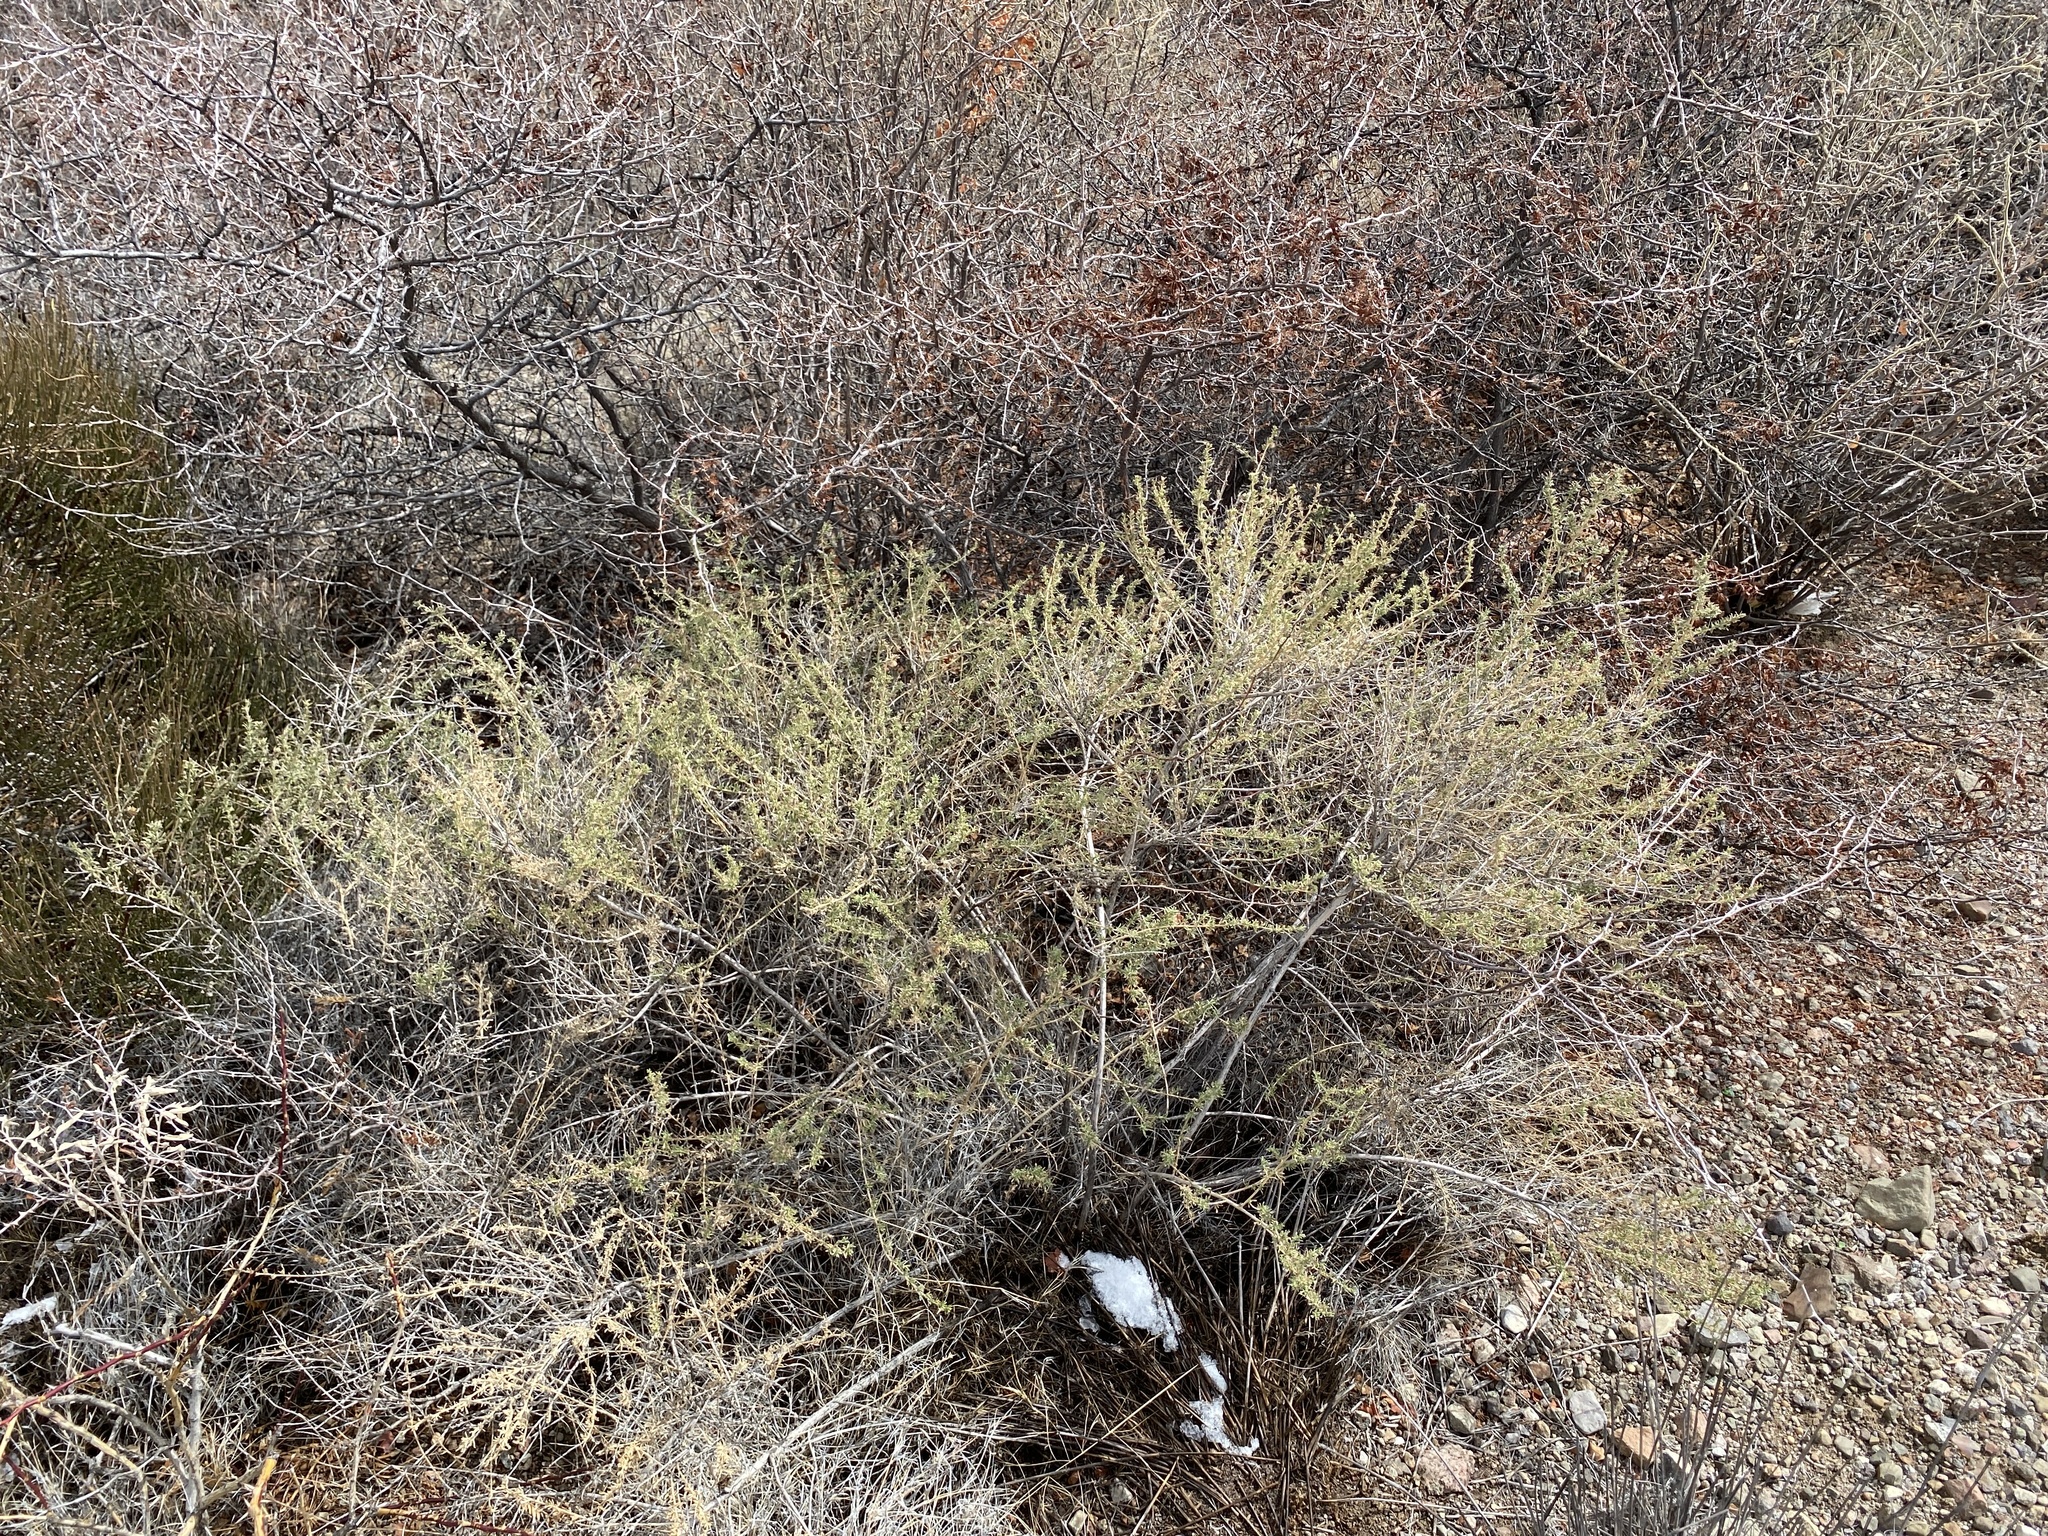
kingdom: Plantae
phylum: Tracheophyta
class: Magnoliopsida
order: Asterales
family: Asteraceae
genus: Baccharis
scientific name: Baccharis pteronioides
